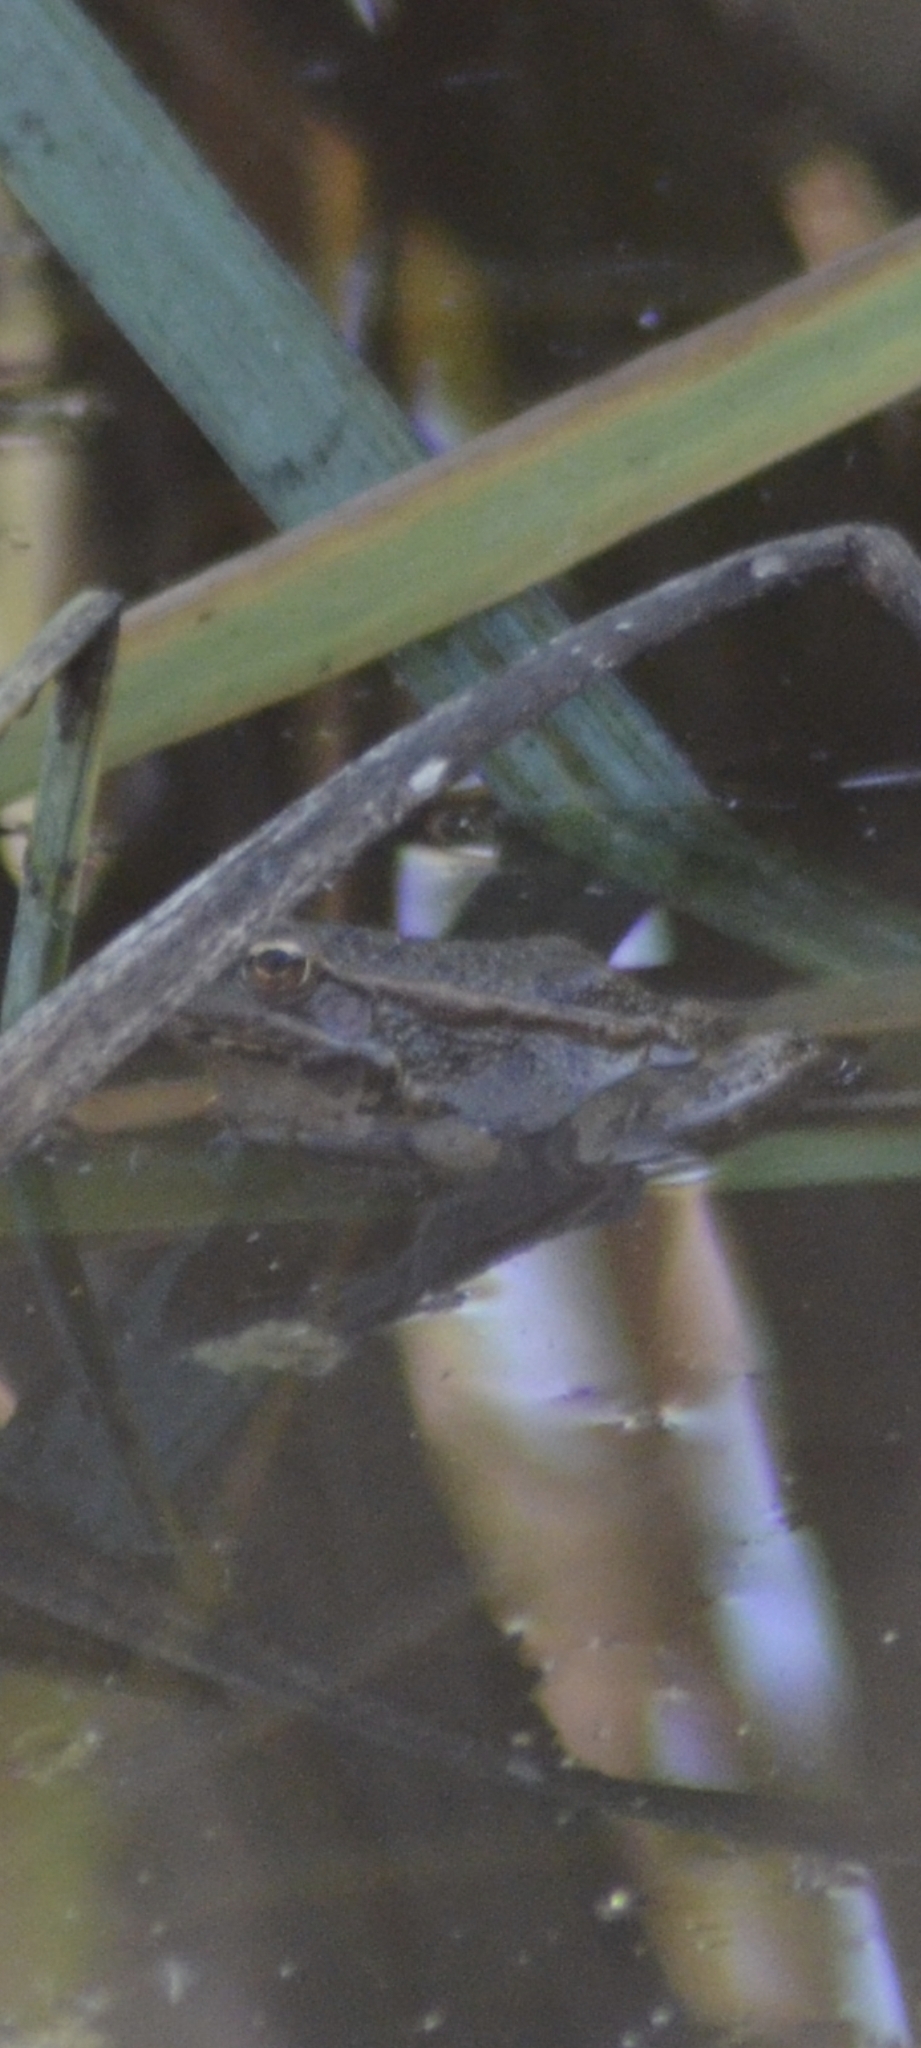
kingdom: Animalia
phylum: Chordata
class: Amphibia
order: Anura
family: Ranidae
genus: Pelophylax
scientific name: Pelophylax perezi
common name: Perez's frog
